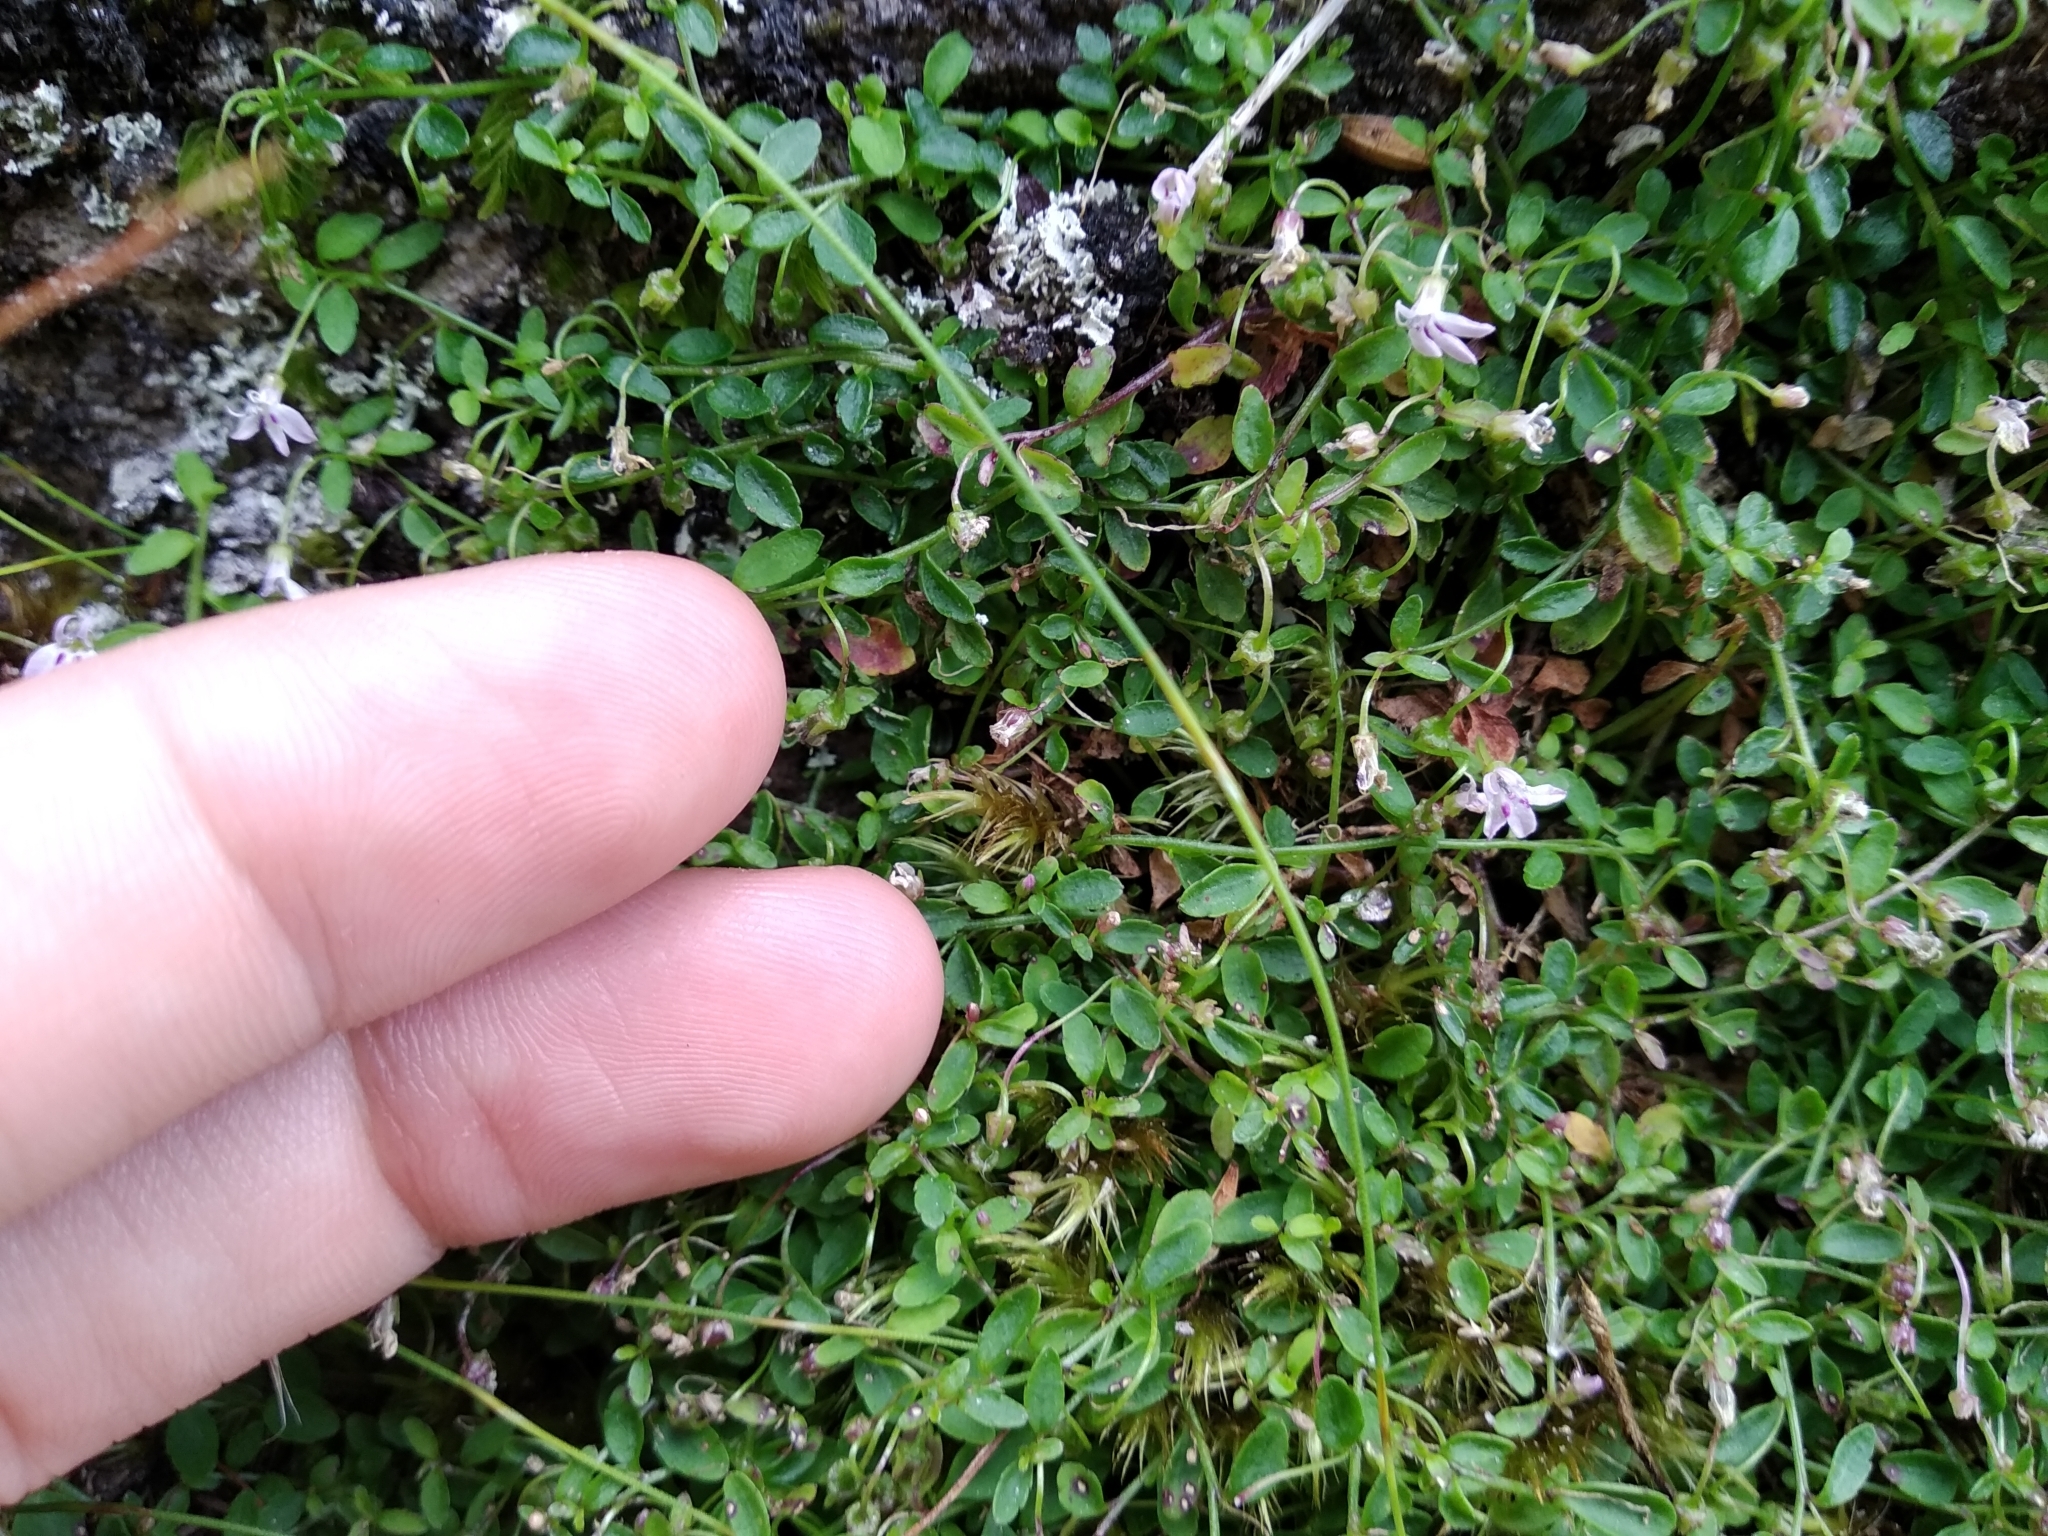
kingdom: Plantae
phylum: Tracheophyta
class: Magnoliopsida
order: Asterales
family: Campanulaceae
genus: Unigenes
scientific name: Unigenes humifusa
